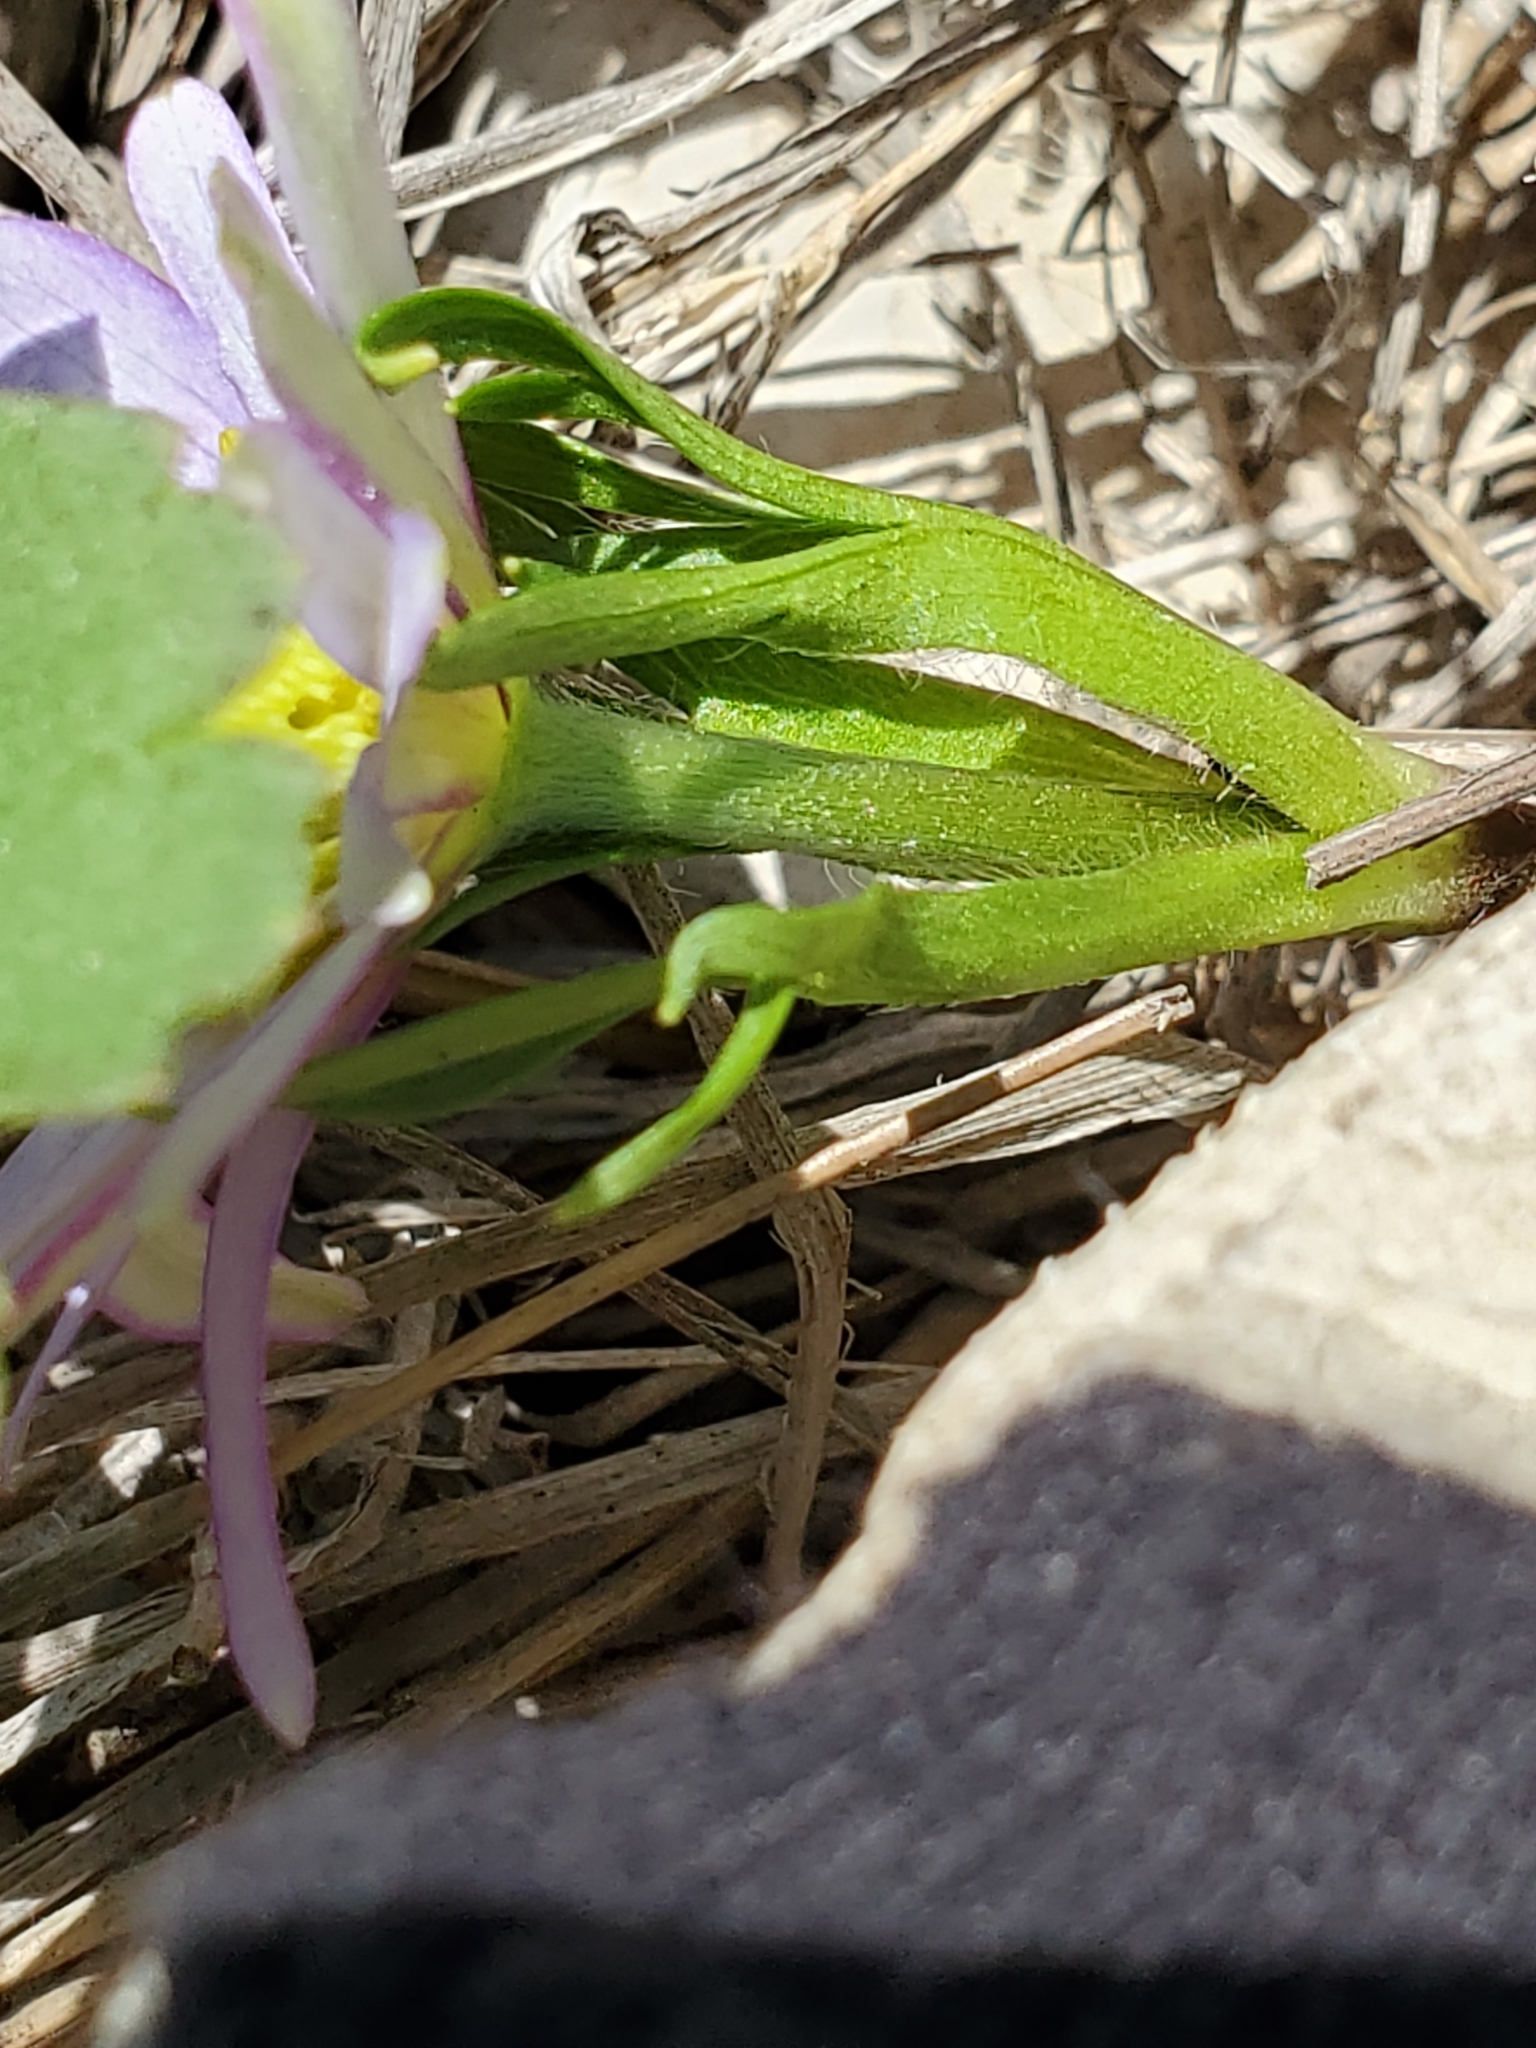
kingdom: Plantae
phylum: Tracheophyta
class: Magnoliopsida
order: Ranunculales
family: Ranunculaceae
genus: Anemone
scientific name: Anemone berlandieri
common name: Ten-petal anemone
